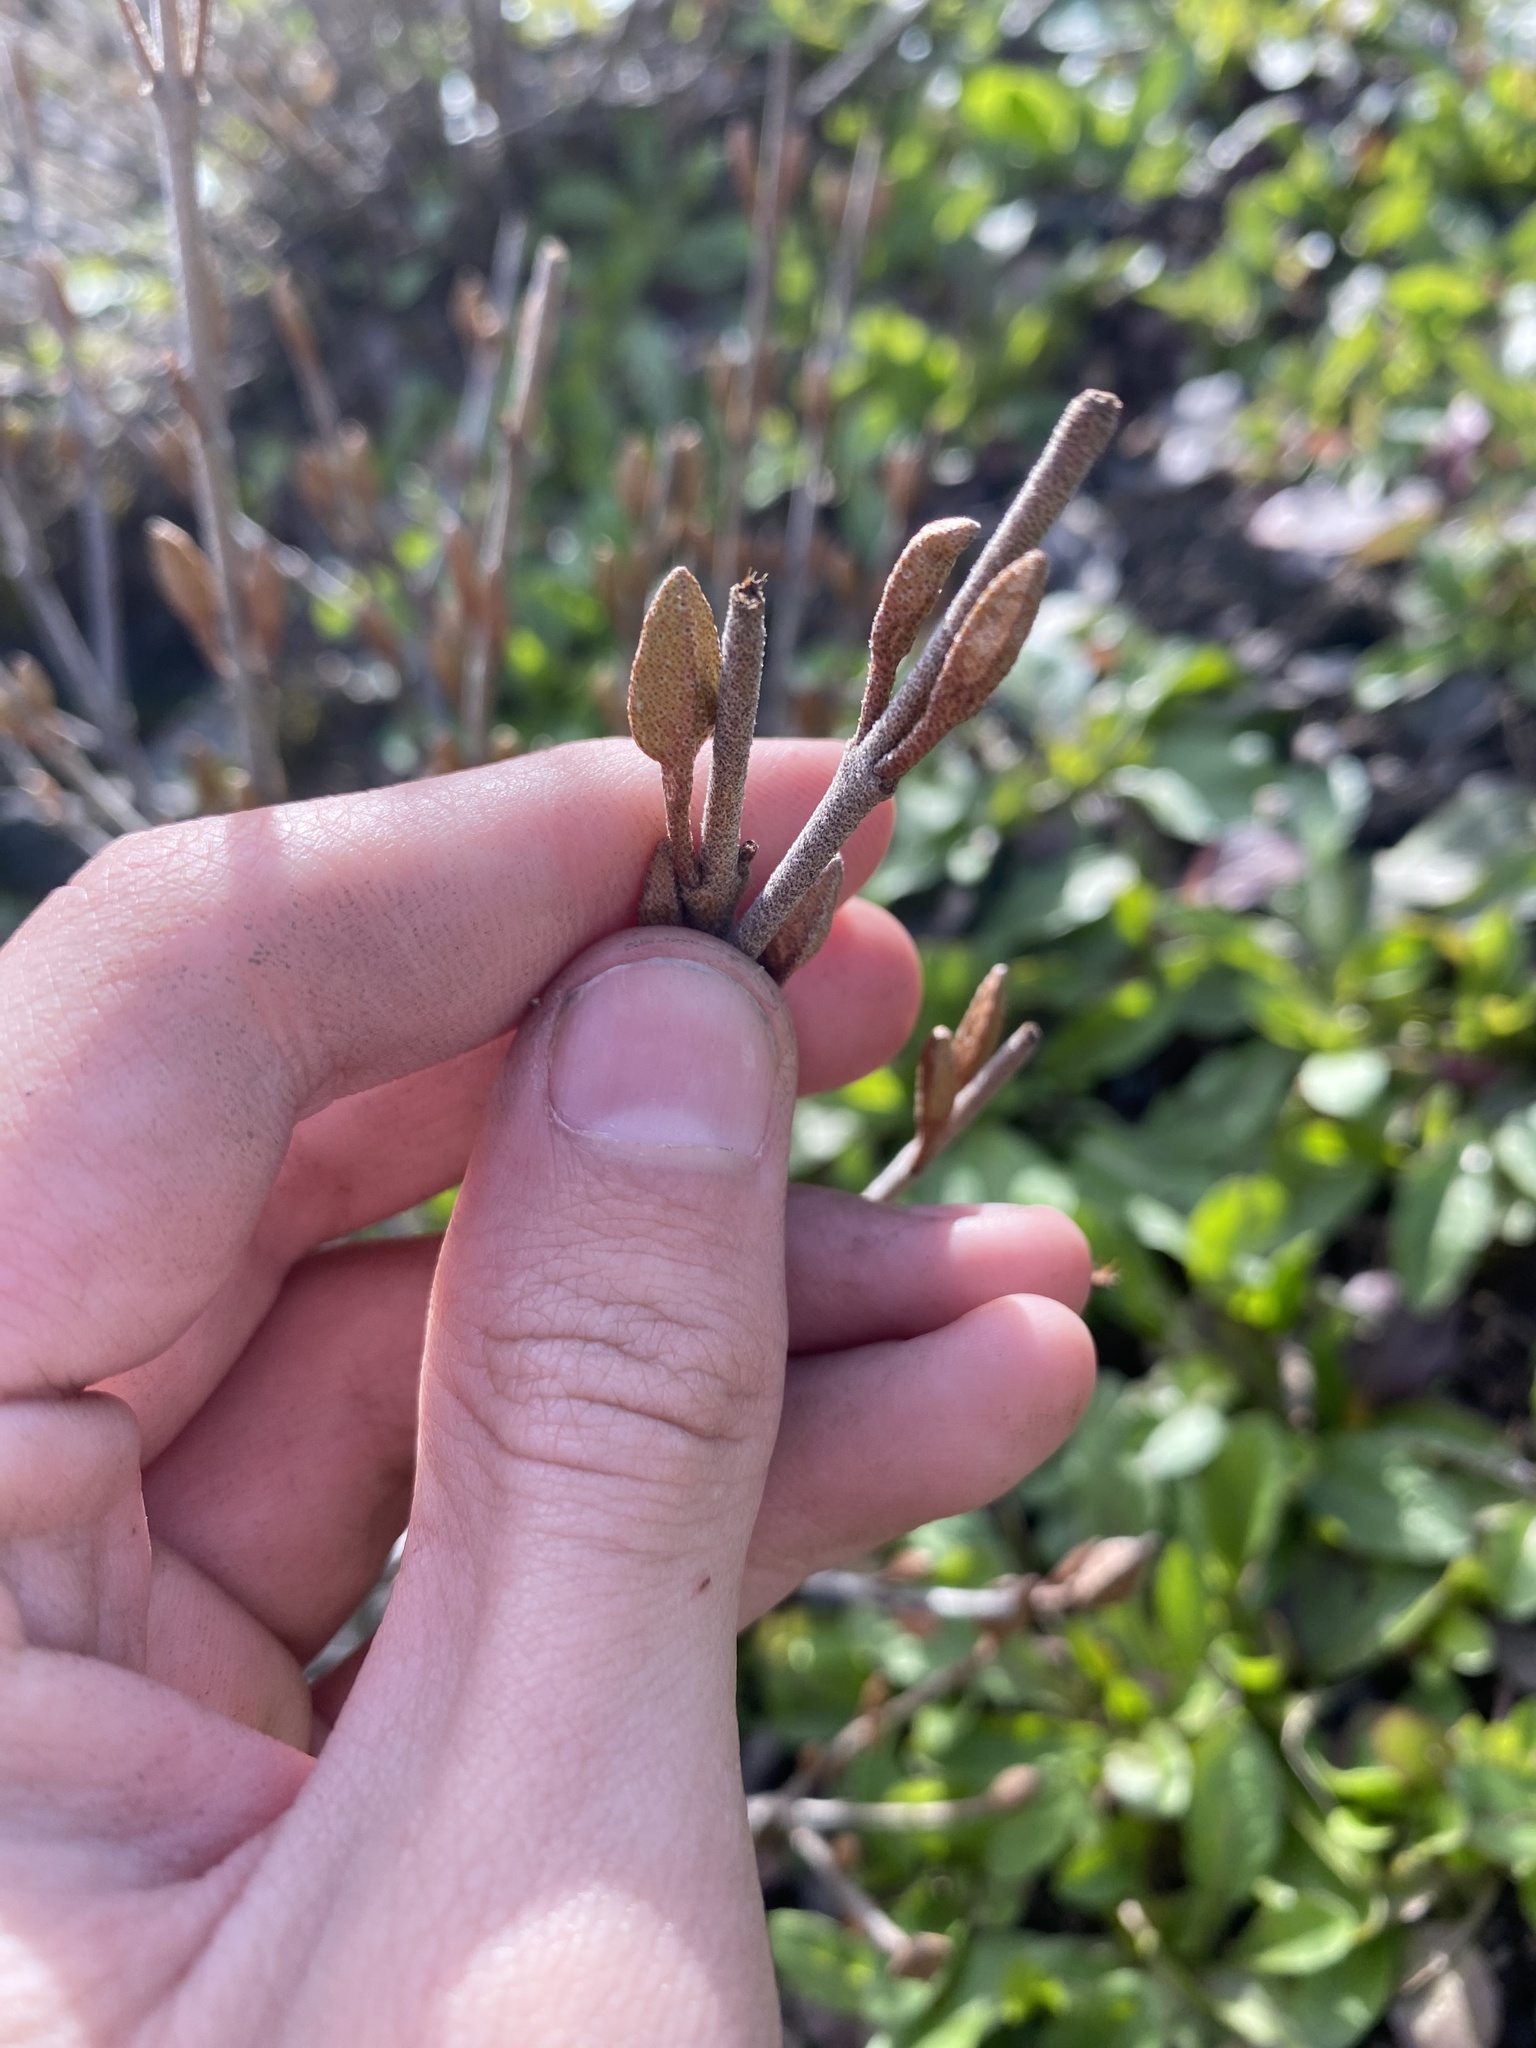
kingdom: Plantae
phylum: Tracheophyta
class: Magnoliopsida
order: Rosales
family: Elaeagnaceae
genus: Shepherdia
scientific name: Shepherdia canadensis
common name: Soapberry
